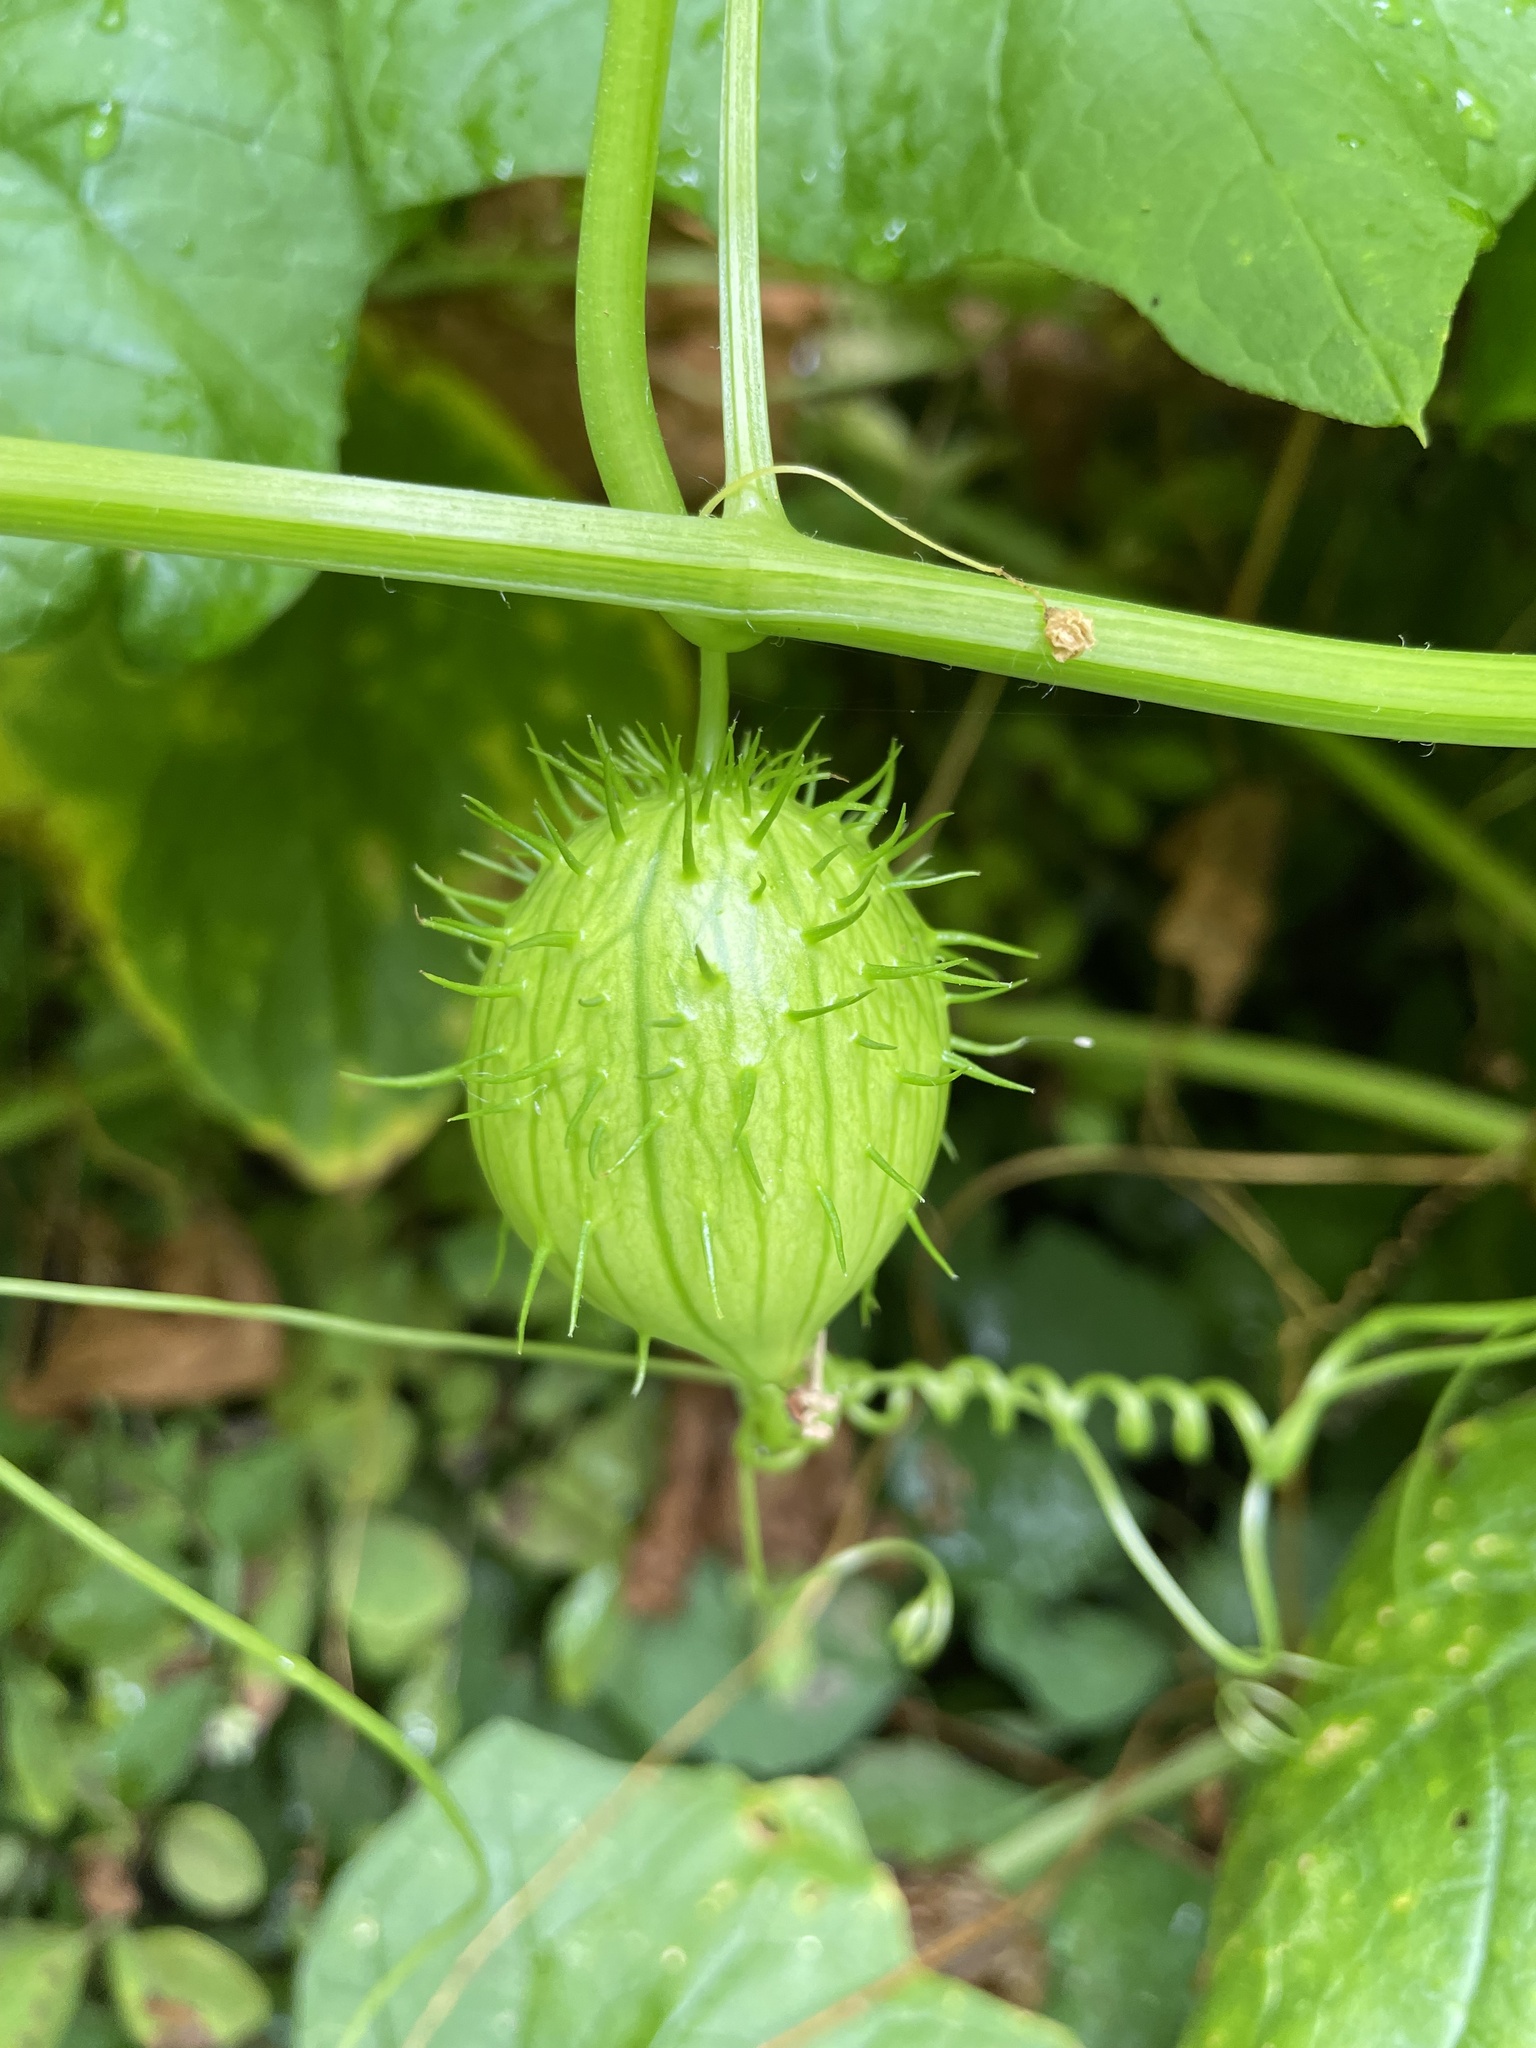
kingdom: Plantae
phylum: Tracheophyta
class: Magnoliopsida
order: Cucurbitales
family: Cucurbitaceae
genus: Marah
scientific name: Marah oregana
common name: Coastal manroot
